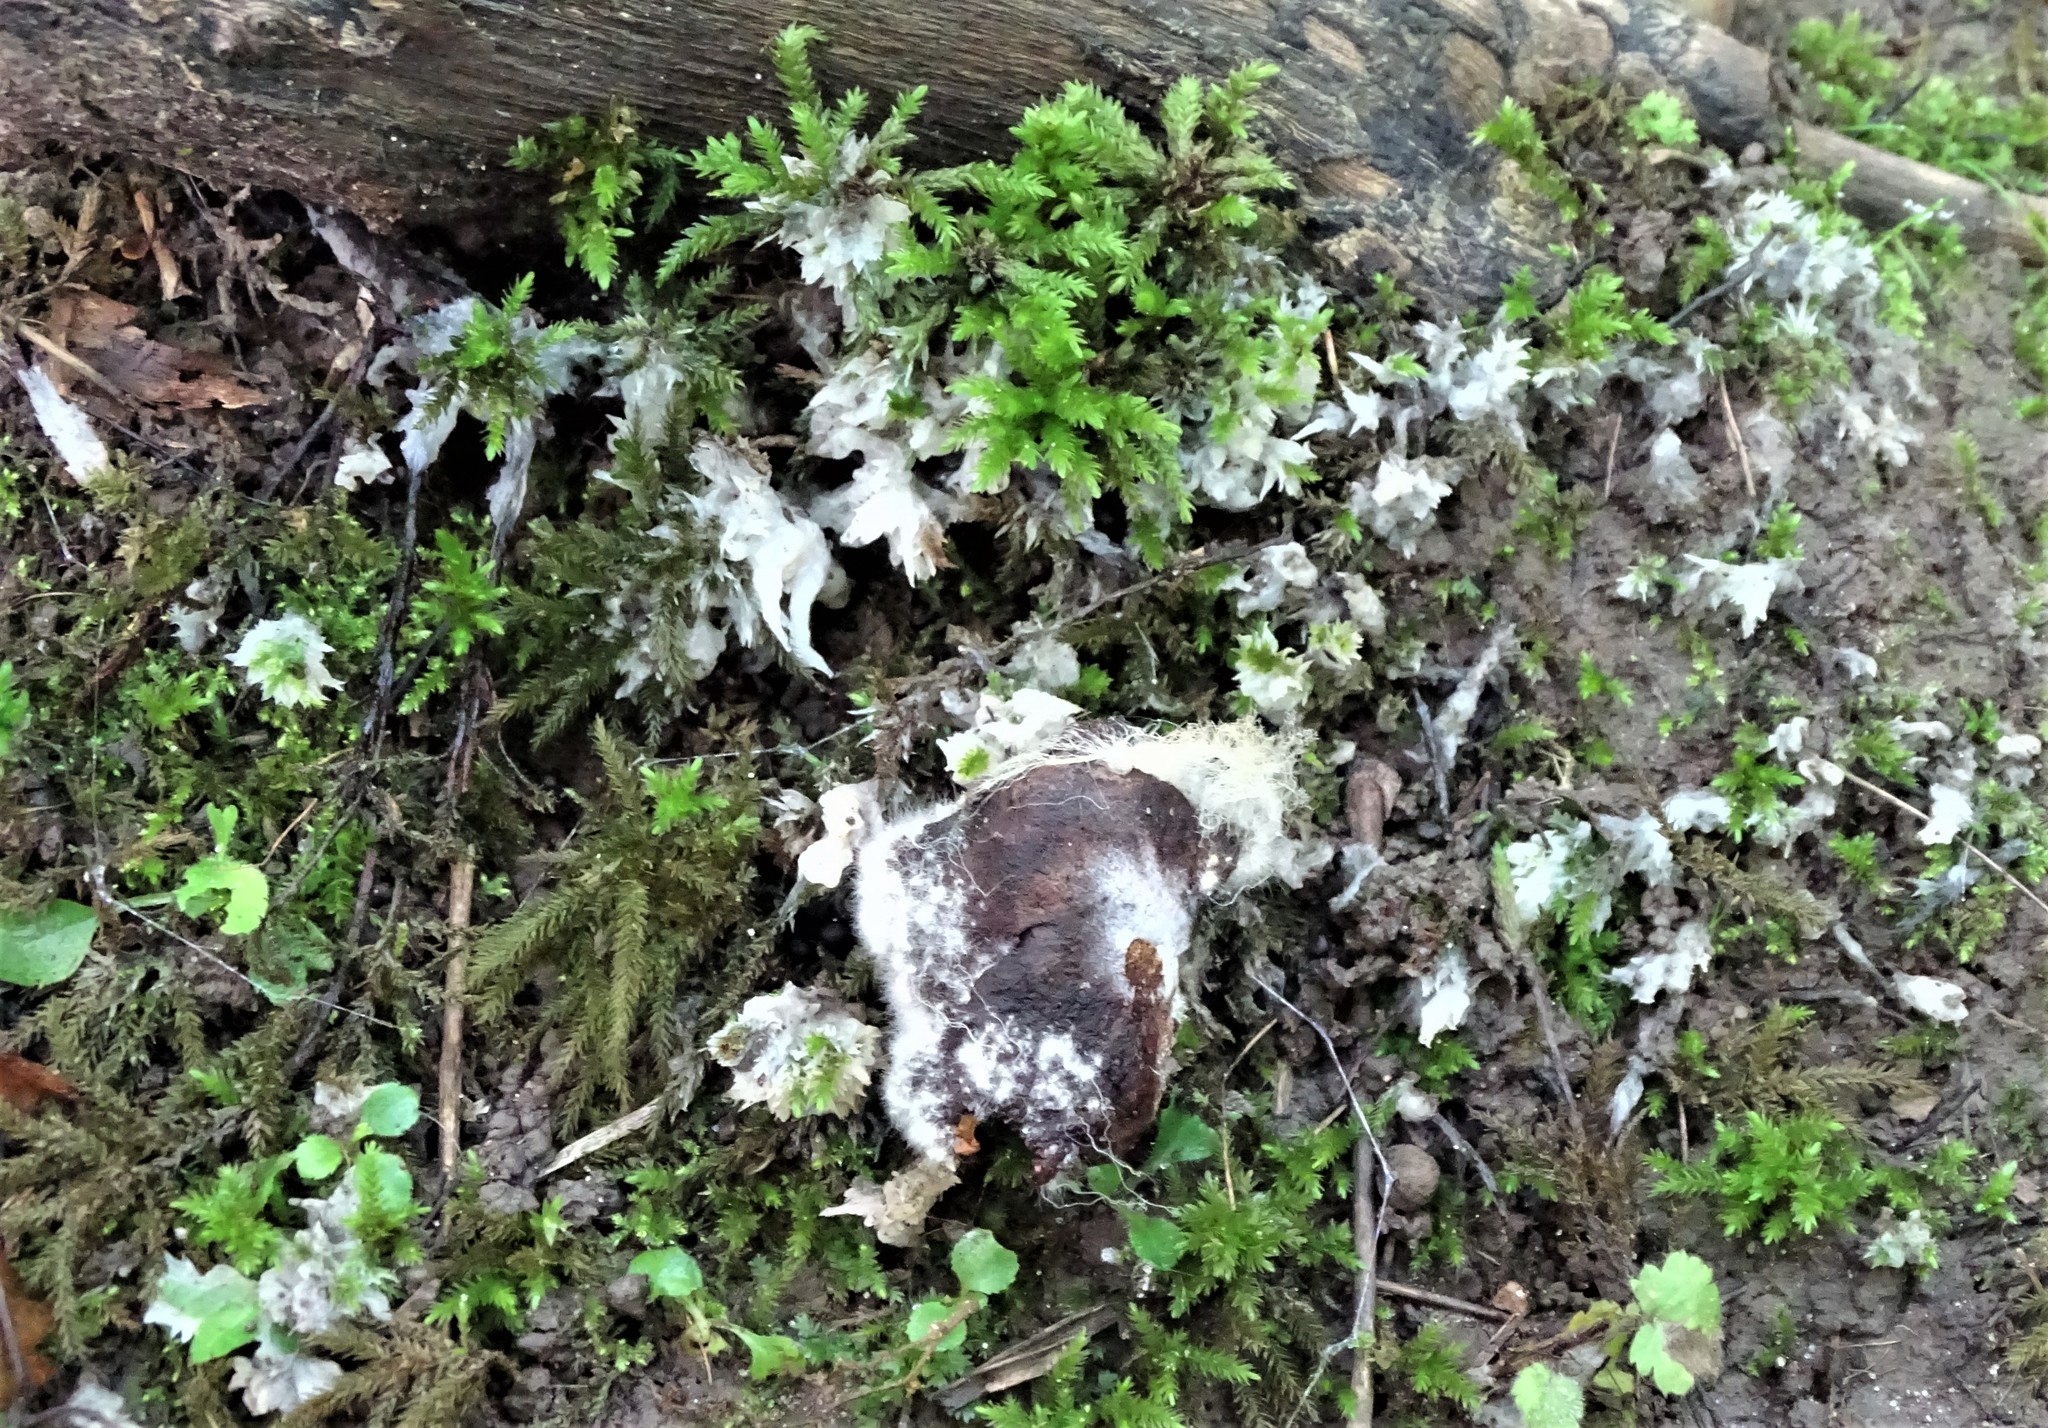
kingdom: Fungi
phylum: Basidiomycota
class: Agaricomycetes
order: Sebacinales
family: Sebacinaceae
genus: Sebacina
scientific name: Sebacina incrustans
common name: Enveloping crust
